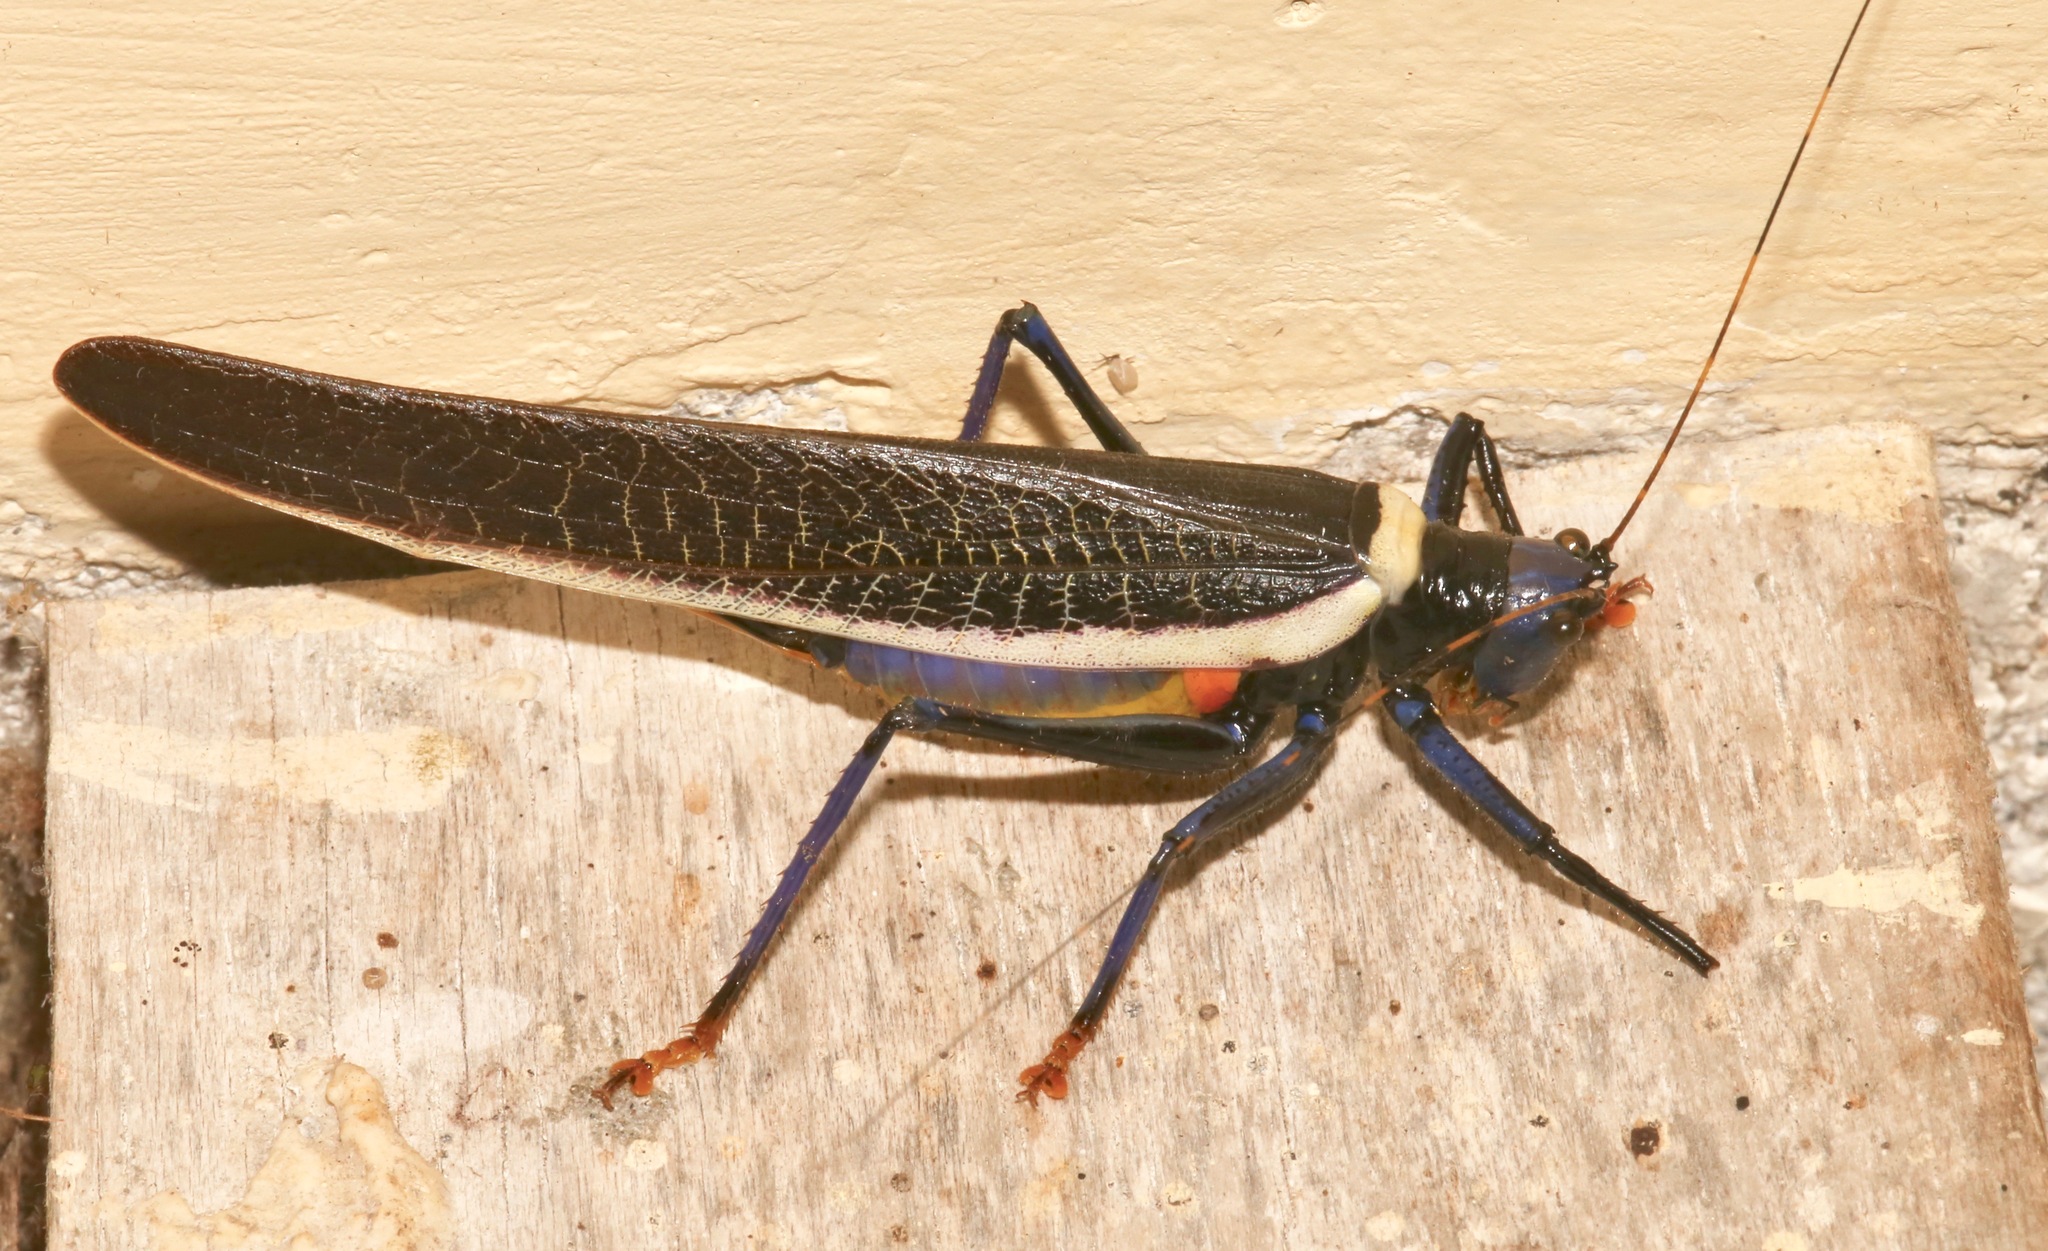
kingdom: Animalia
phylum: Arthropoda
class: Insecta
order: Orthoptera
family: Tettigoniidae
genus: Moncheca
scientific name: Moncheca elegans
